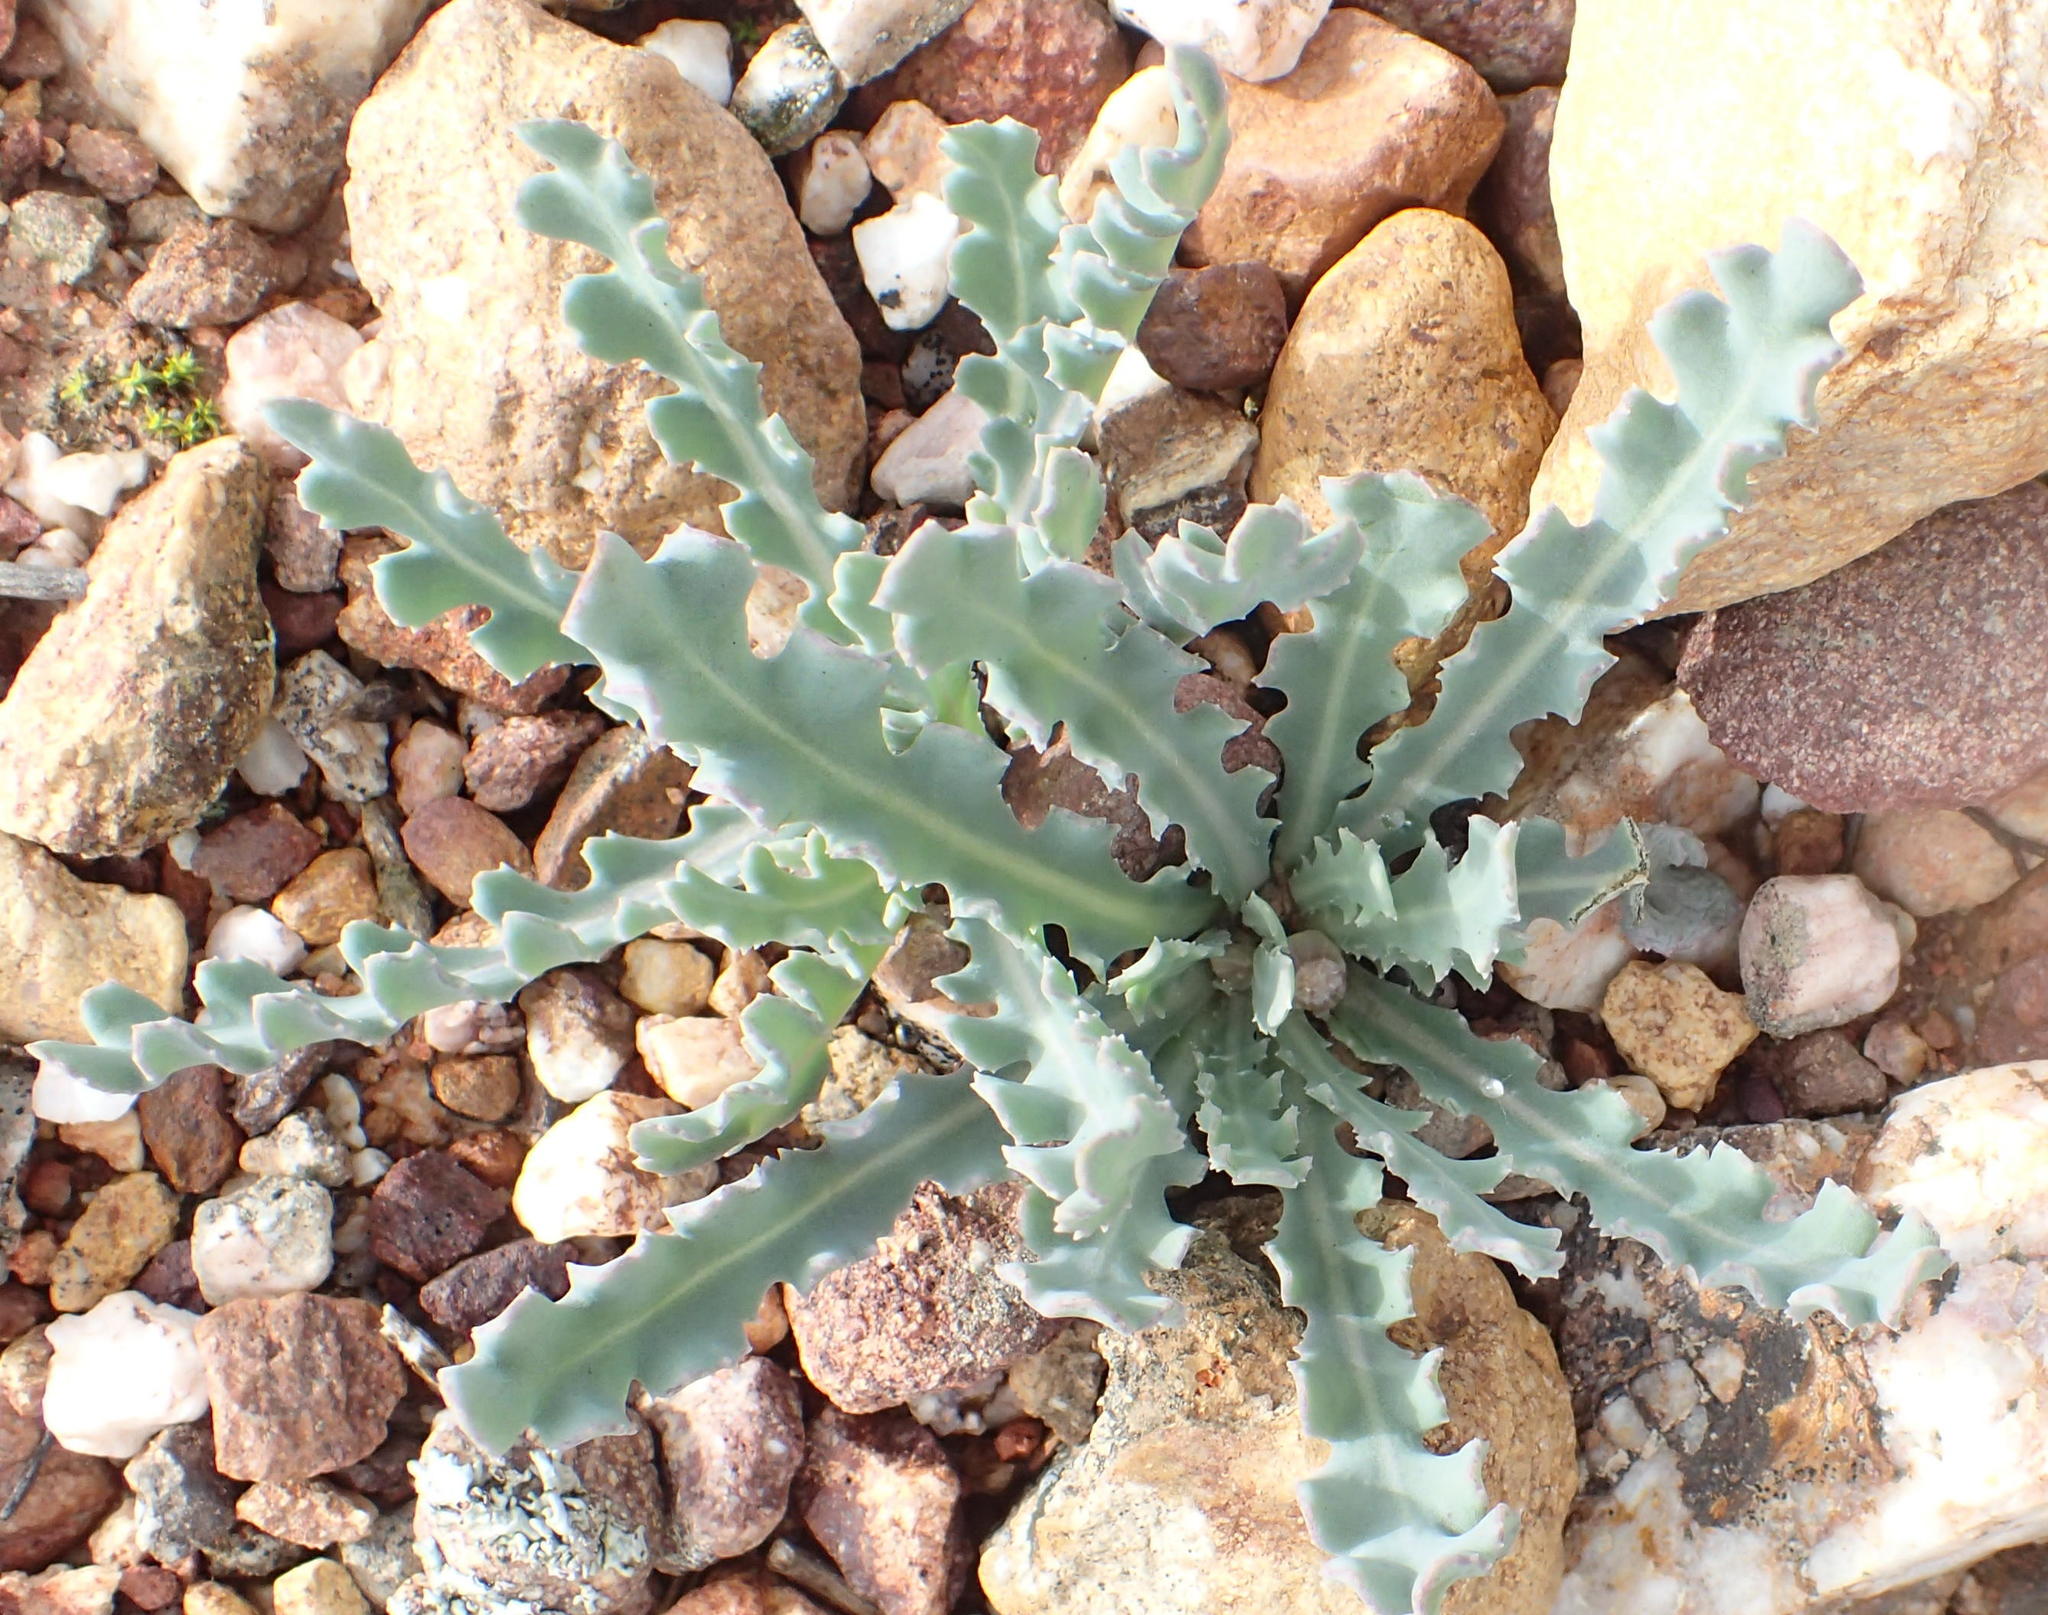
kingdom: Plantae
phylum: Tracheophyta
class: Magnoliopsida
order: Asterales
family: Asteraceae
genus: Othonna
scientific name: Othonna auriculifolia
